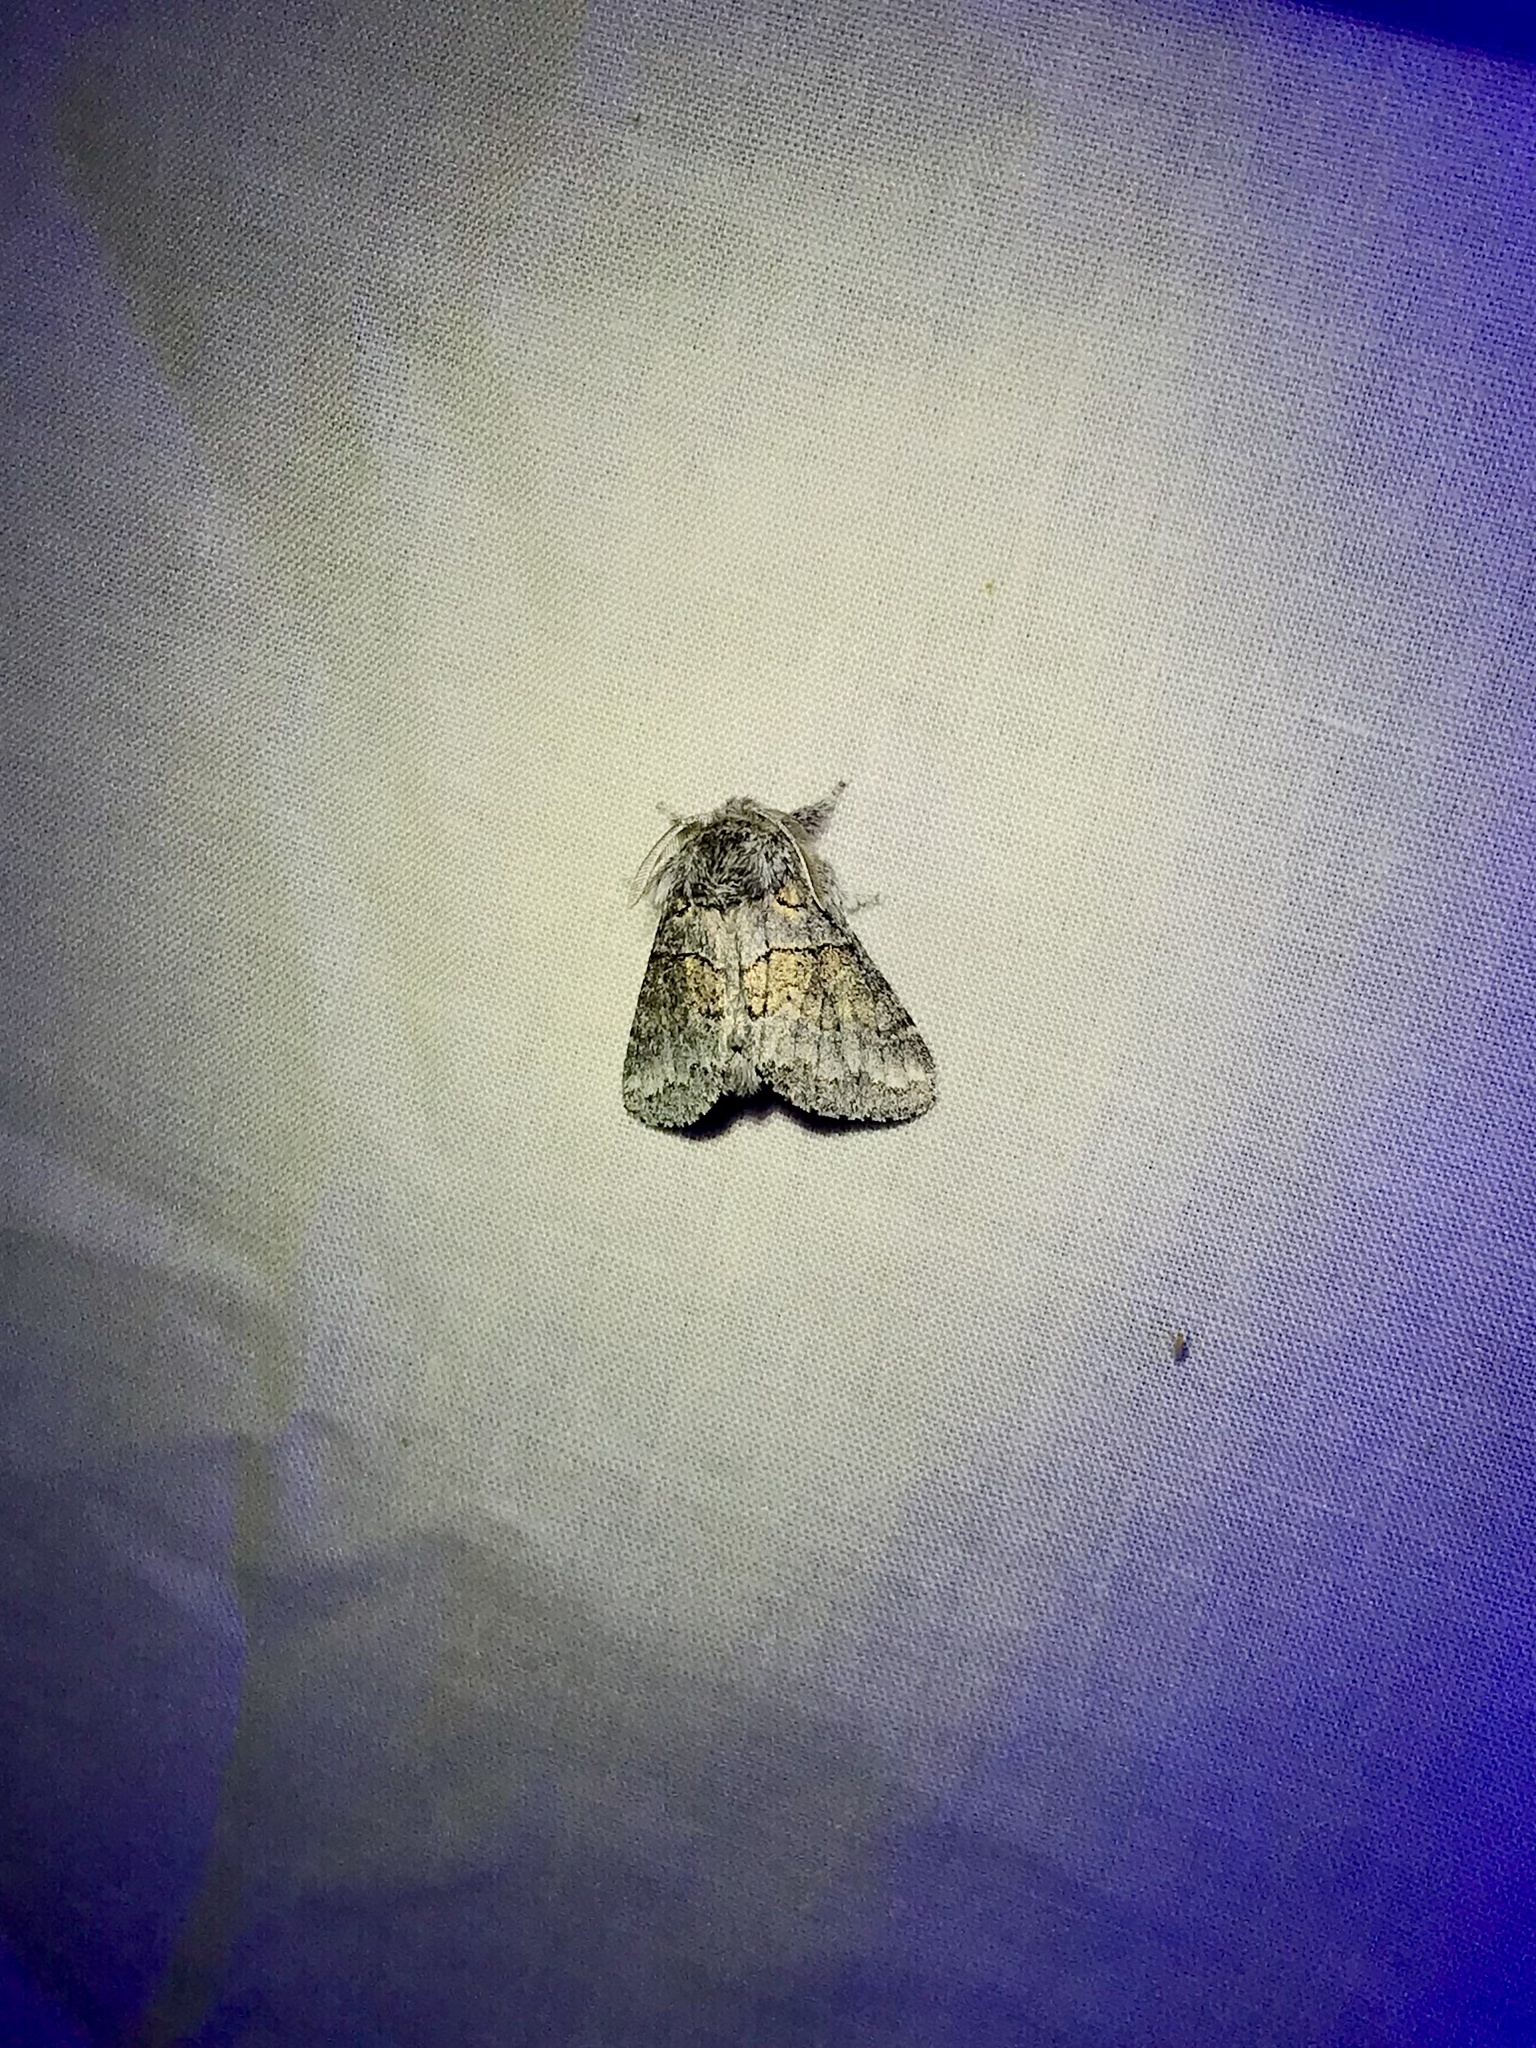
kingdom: Animalia
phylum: Arthropoda
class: Insecta
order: Lepidoptera
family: Notodontidae
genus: Gluphisia
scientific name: Gluphisia septentrionis
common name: Common gluphisia
